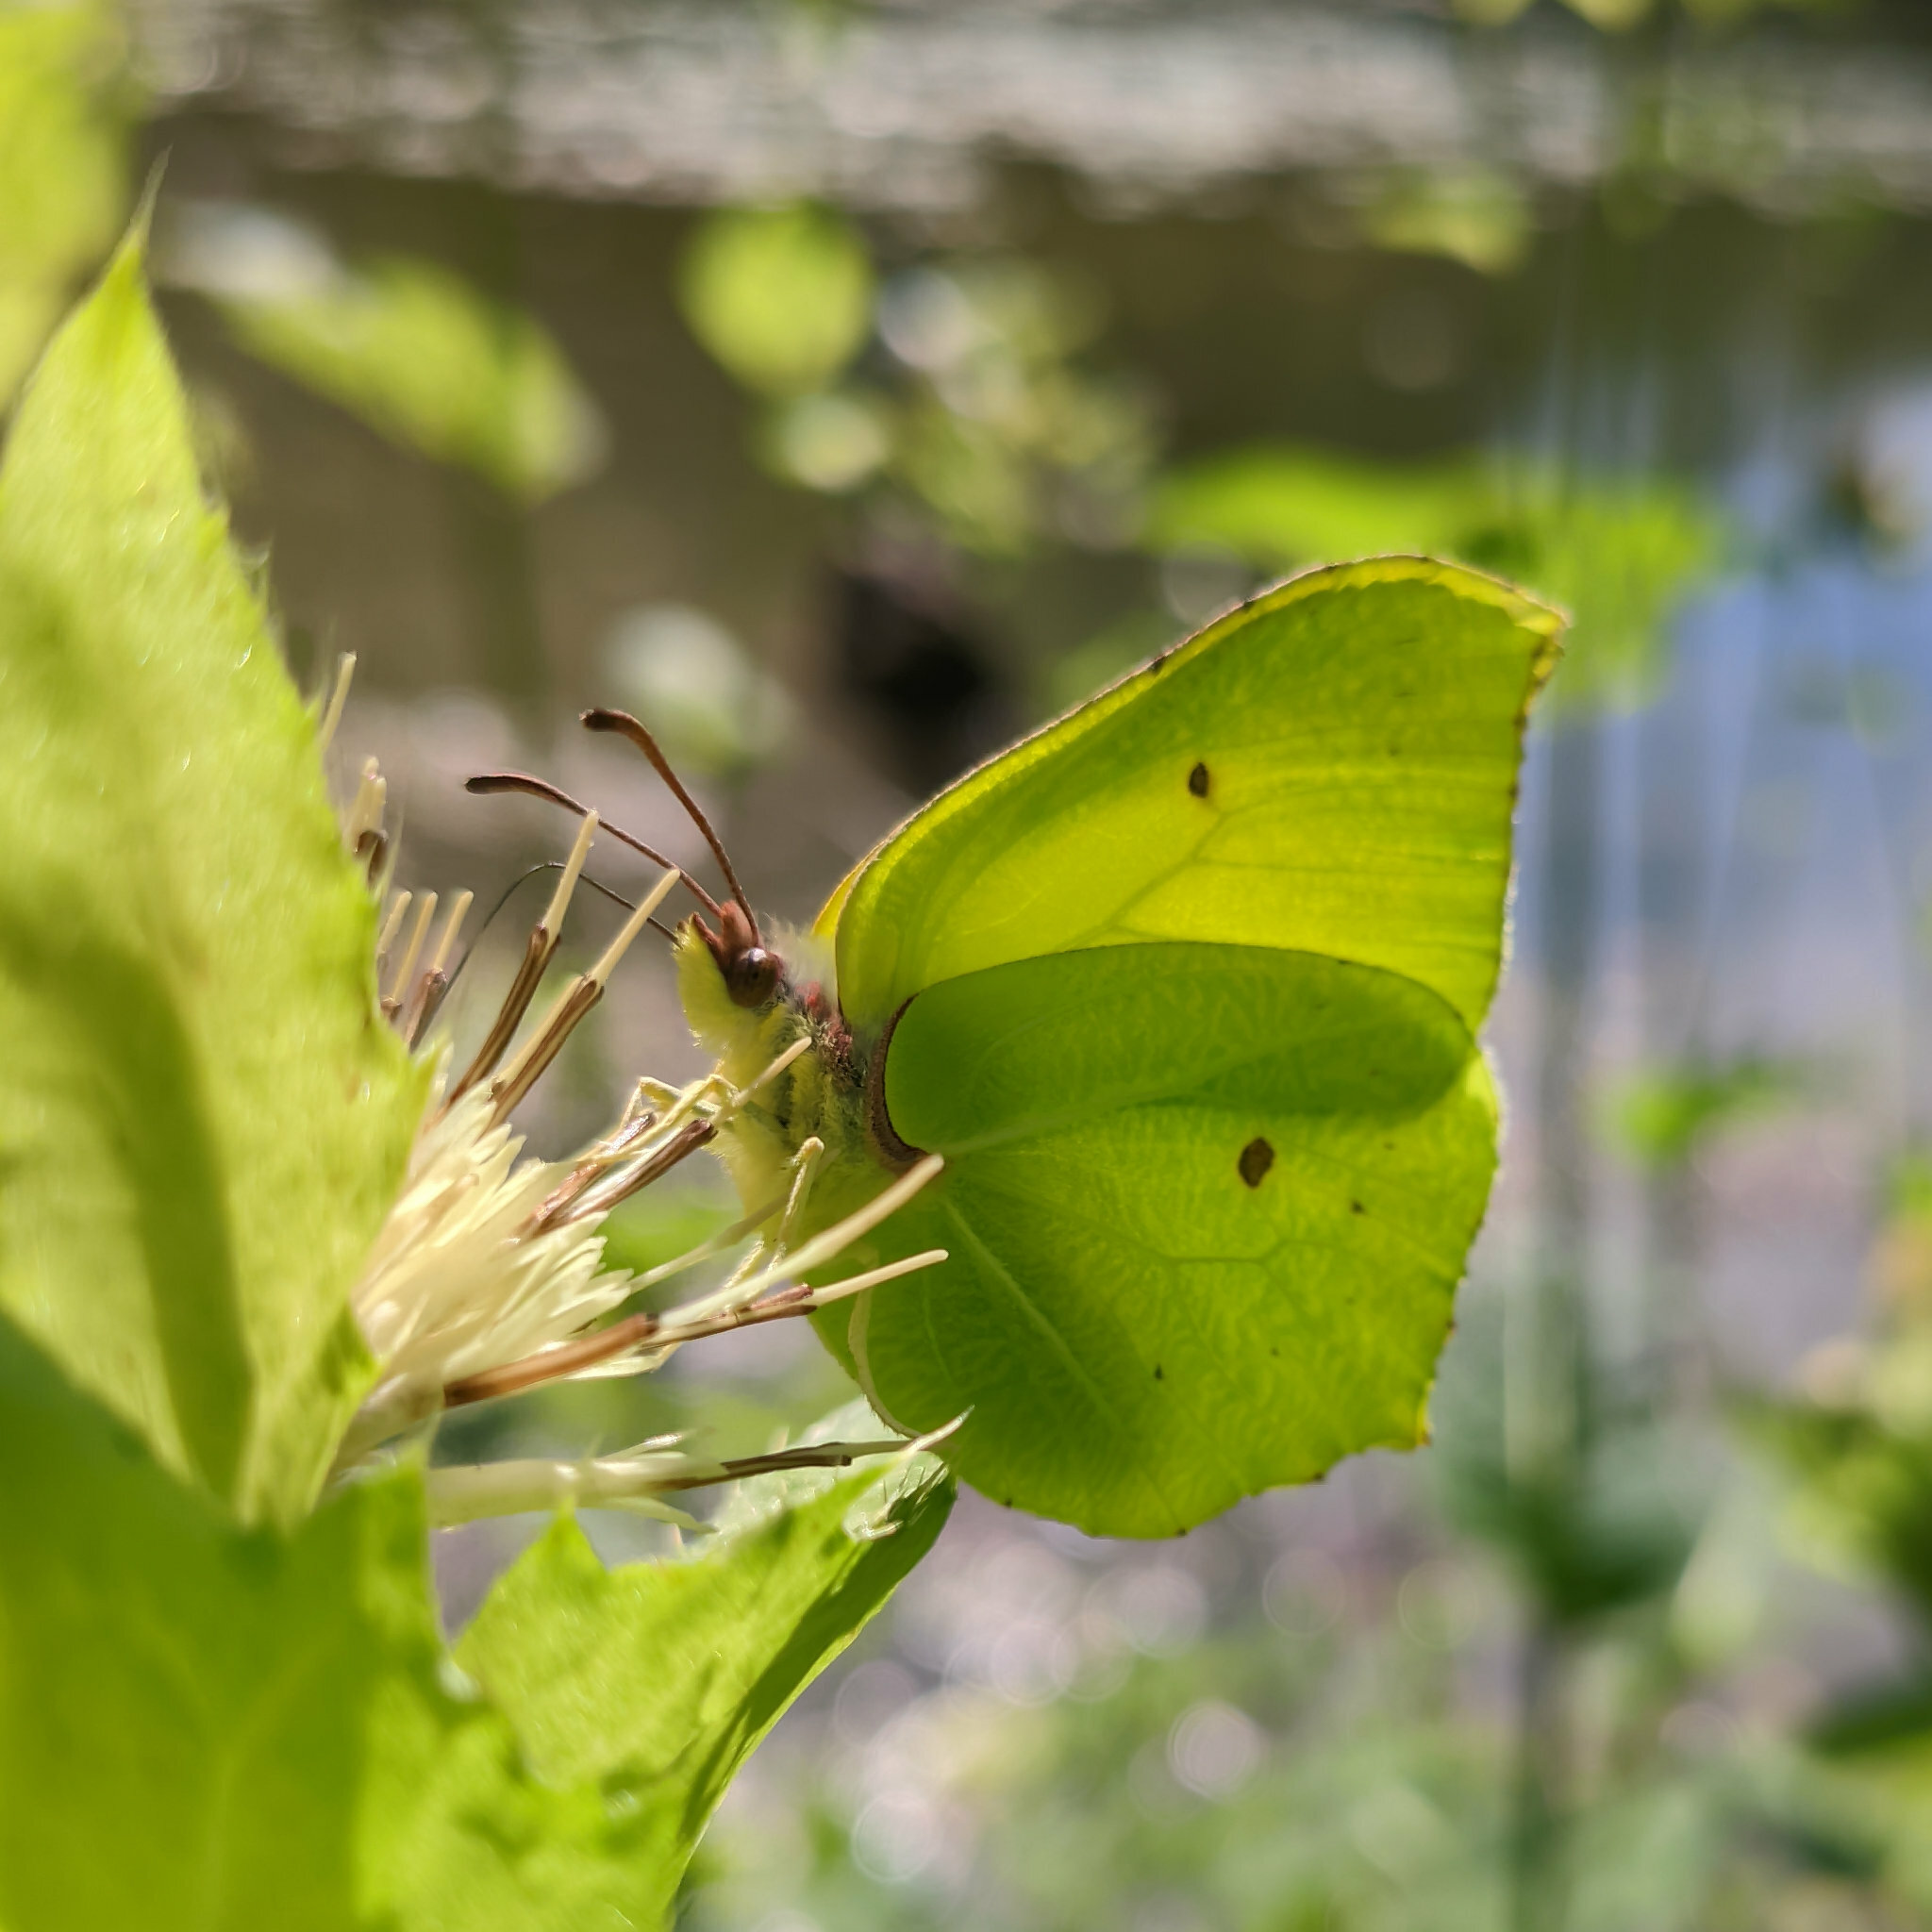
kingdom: Animalia
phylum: Arthropoda
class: Insecta
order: Lepidoptera
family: Pieridae
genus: Gonepteryx
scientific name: Gonepteryx rhamni
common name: Brimstone
